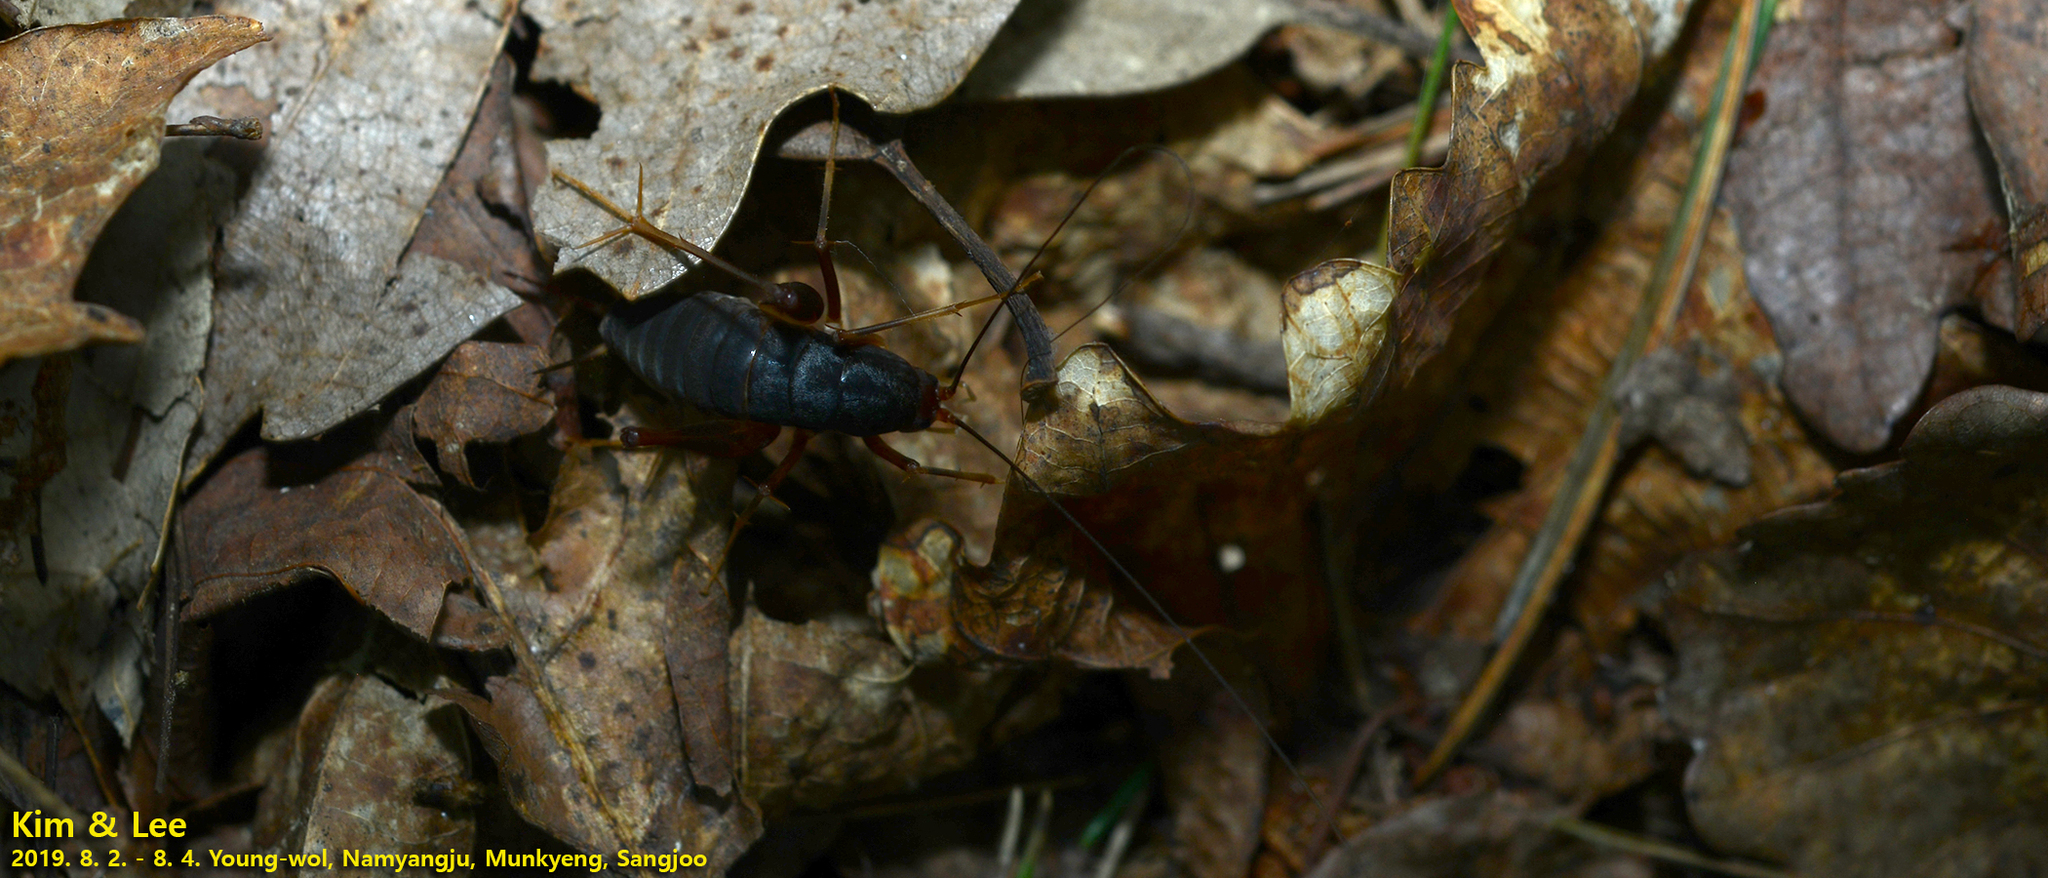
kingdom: Animalia
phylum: Arthropoda
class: Insecta
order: Orthoptera
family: Rhaphidophoridae
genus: Paratachycines
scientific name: Paratachycines ussuriensis
